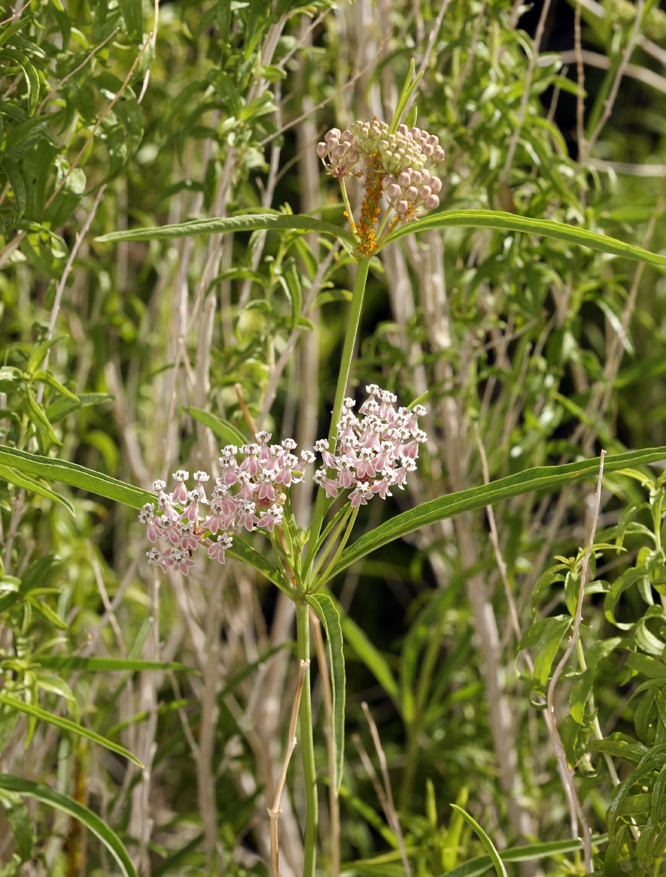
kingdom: Plantae
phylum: Tracheophyta
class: Magnoliopsida
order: Gentianales
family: Apocynaceae
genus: Asclepias
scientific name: Asclepias fascicularis
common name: Mexican milkweed
